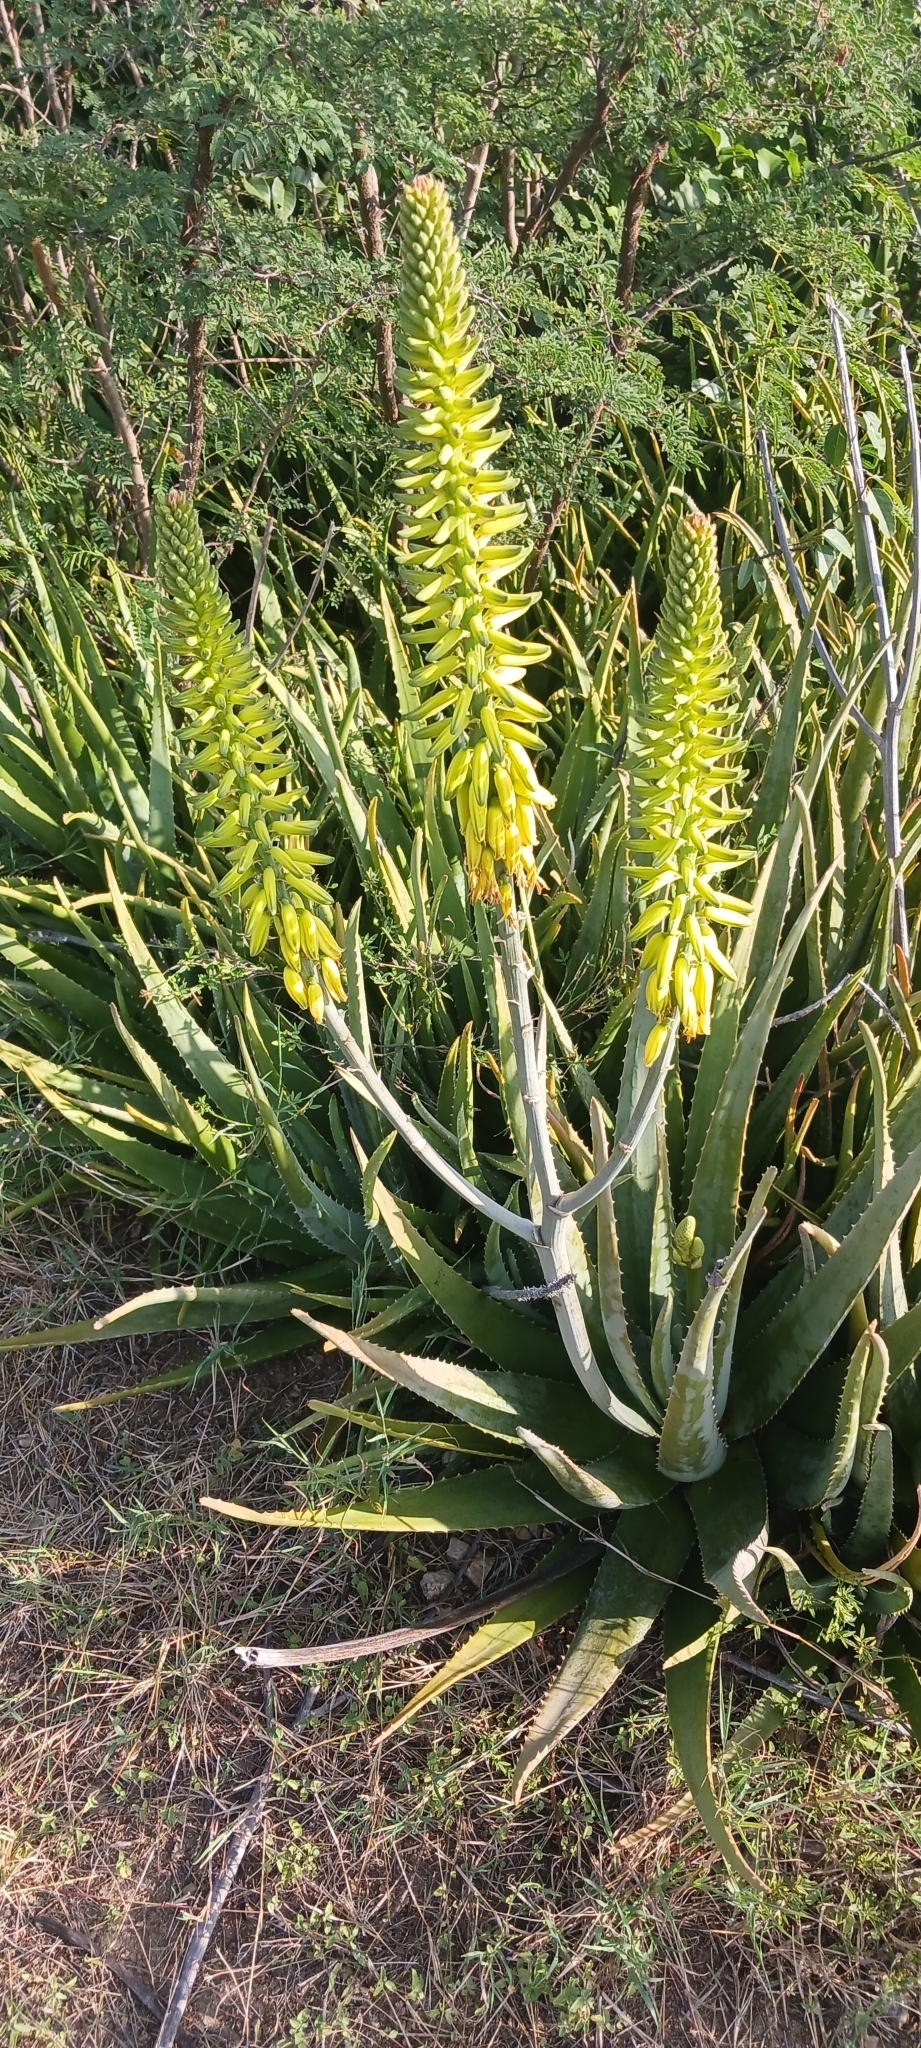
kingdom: Plantae
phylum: Tracheophyta
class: Liliopsida
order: Asparagales
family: Asphodelaceae
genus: Aloe
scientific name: Aloe vera
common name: Barbados aloe
